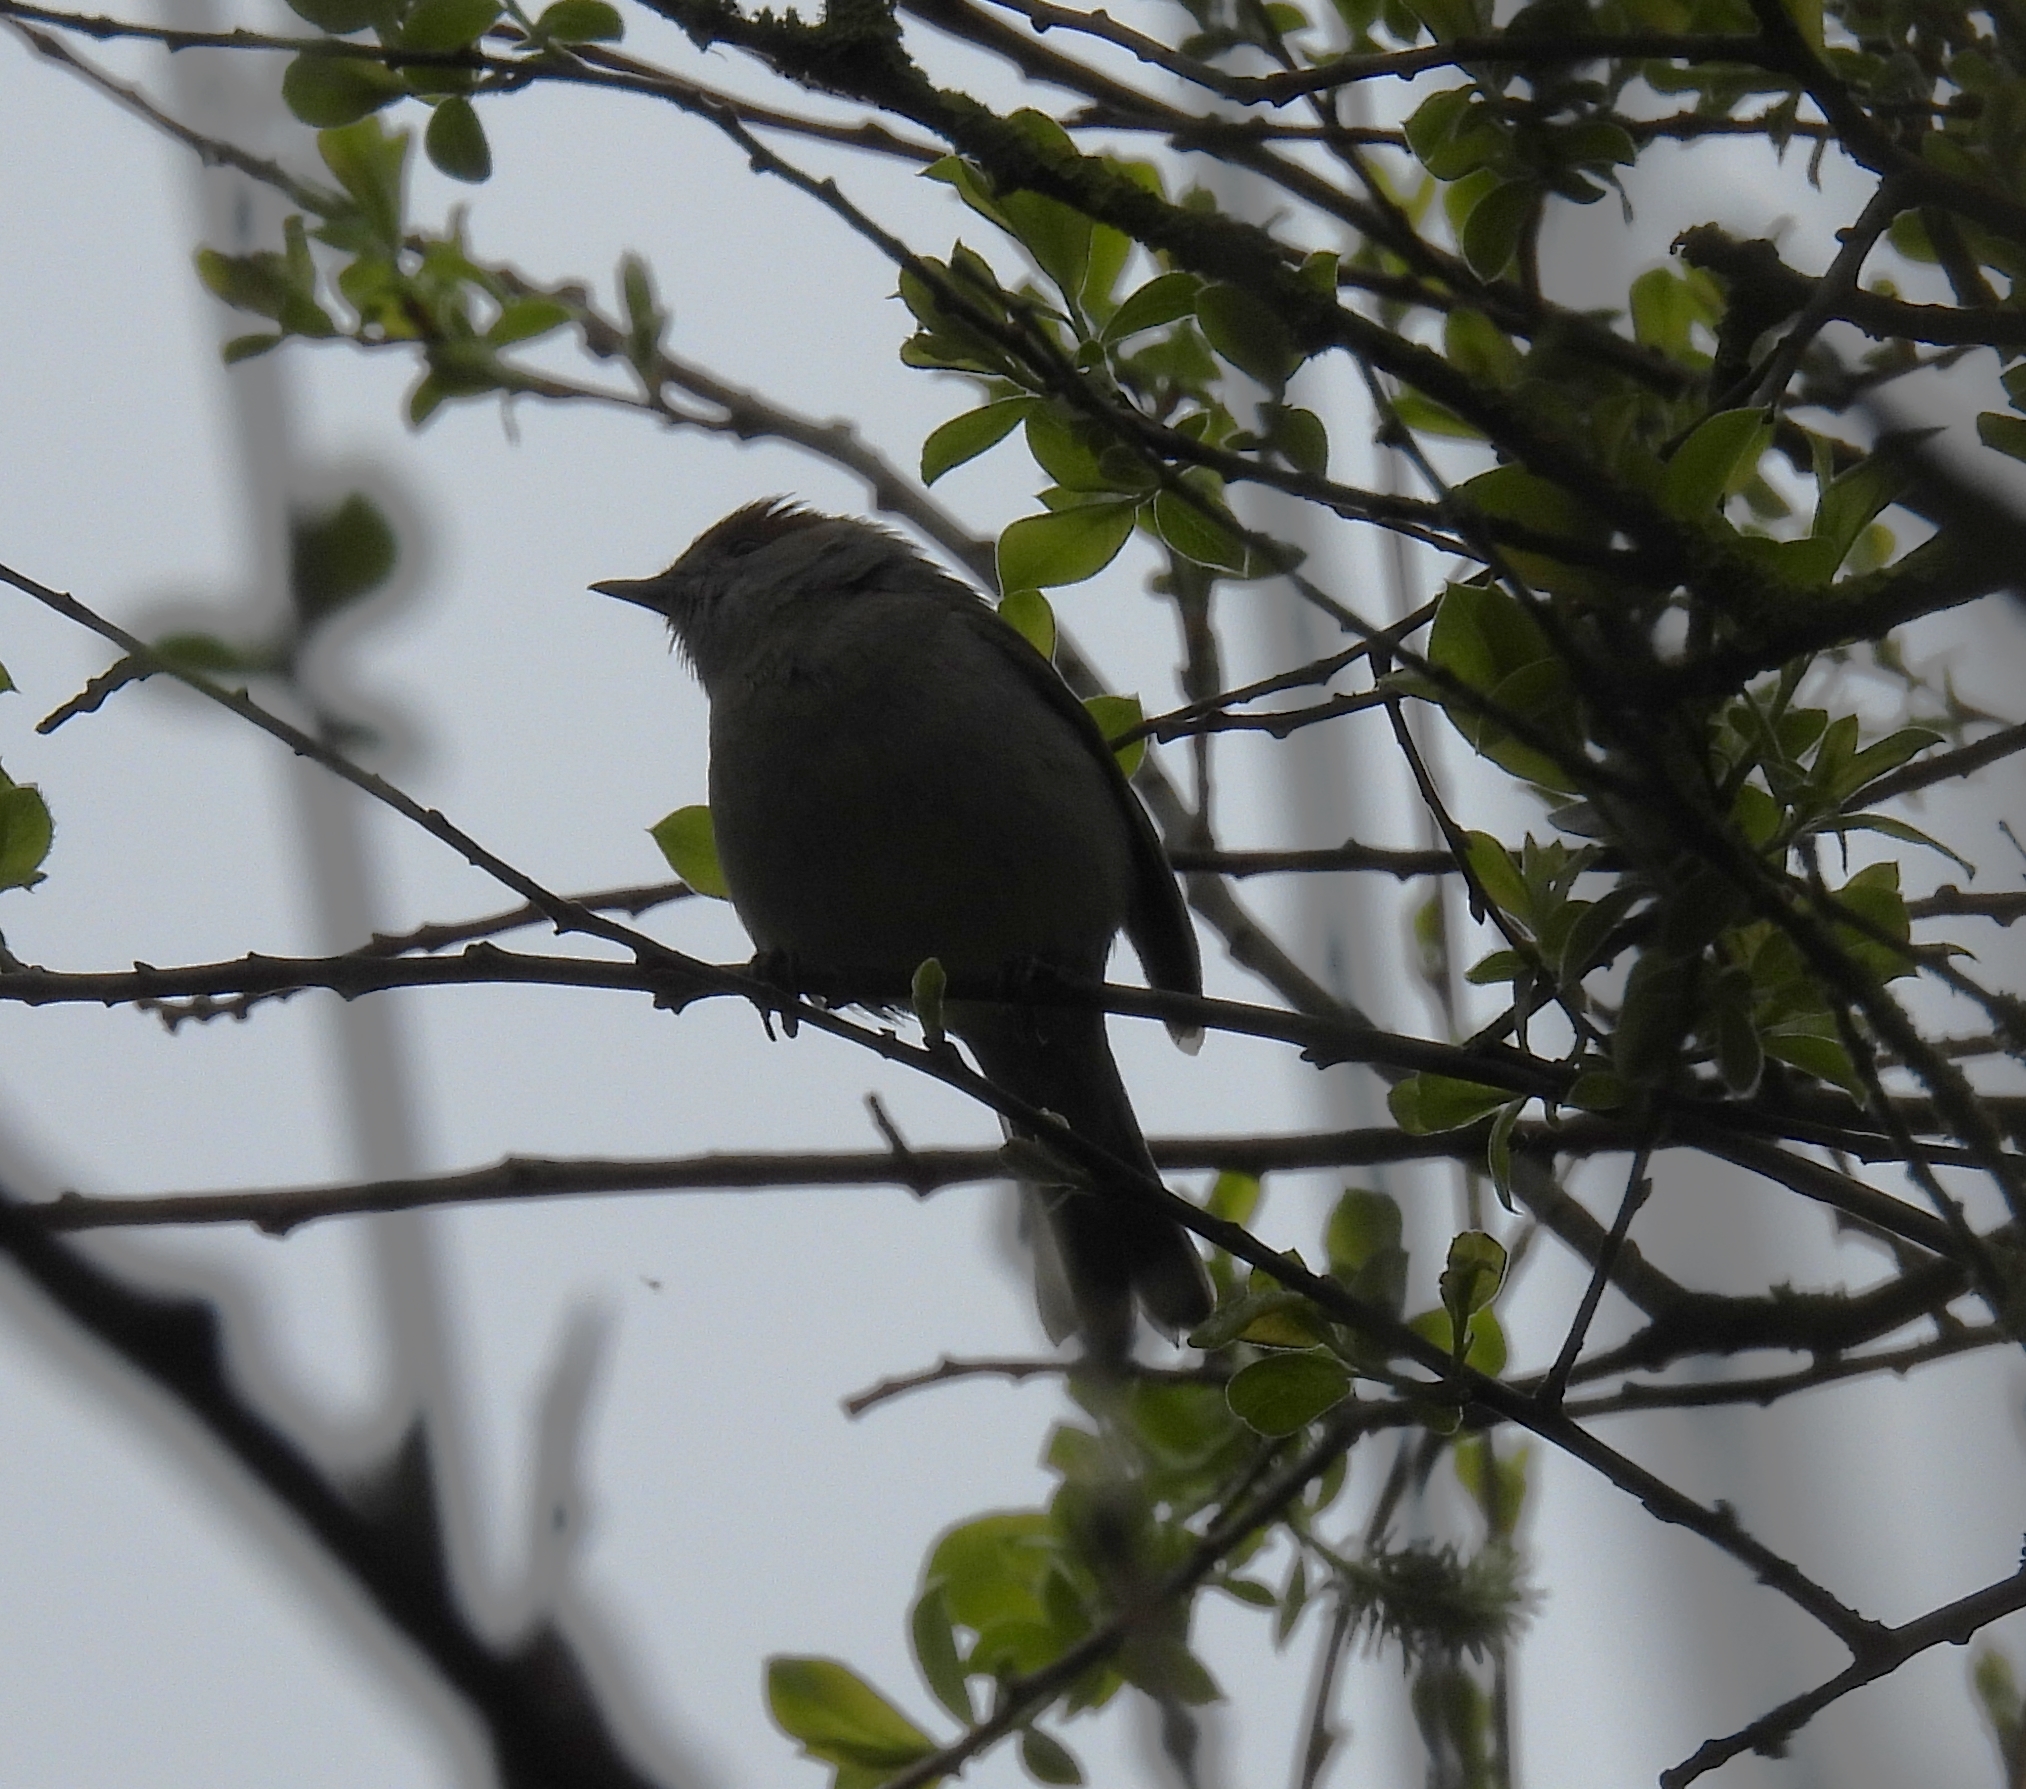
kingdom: Animalia
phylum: Chordata
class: Aves
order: Passeriformes
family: Sylviidae
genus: Sylvia
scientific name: Sylvia atricapilla
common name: Eurasian blackcap
